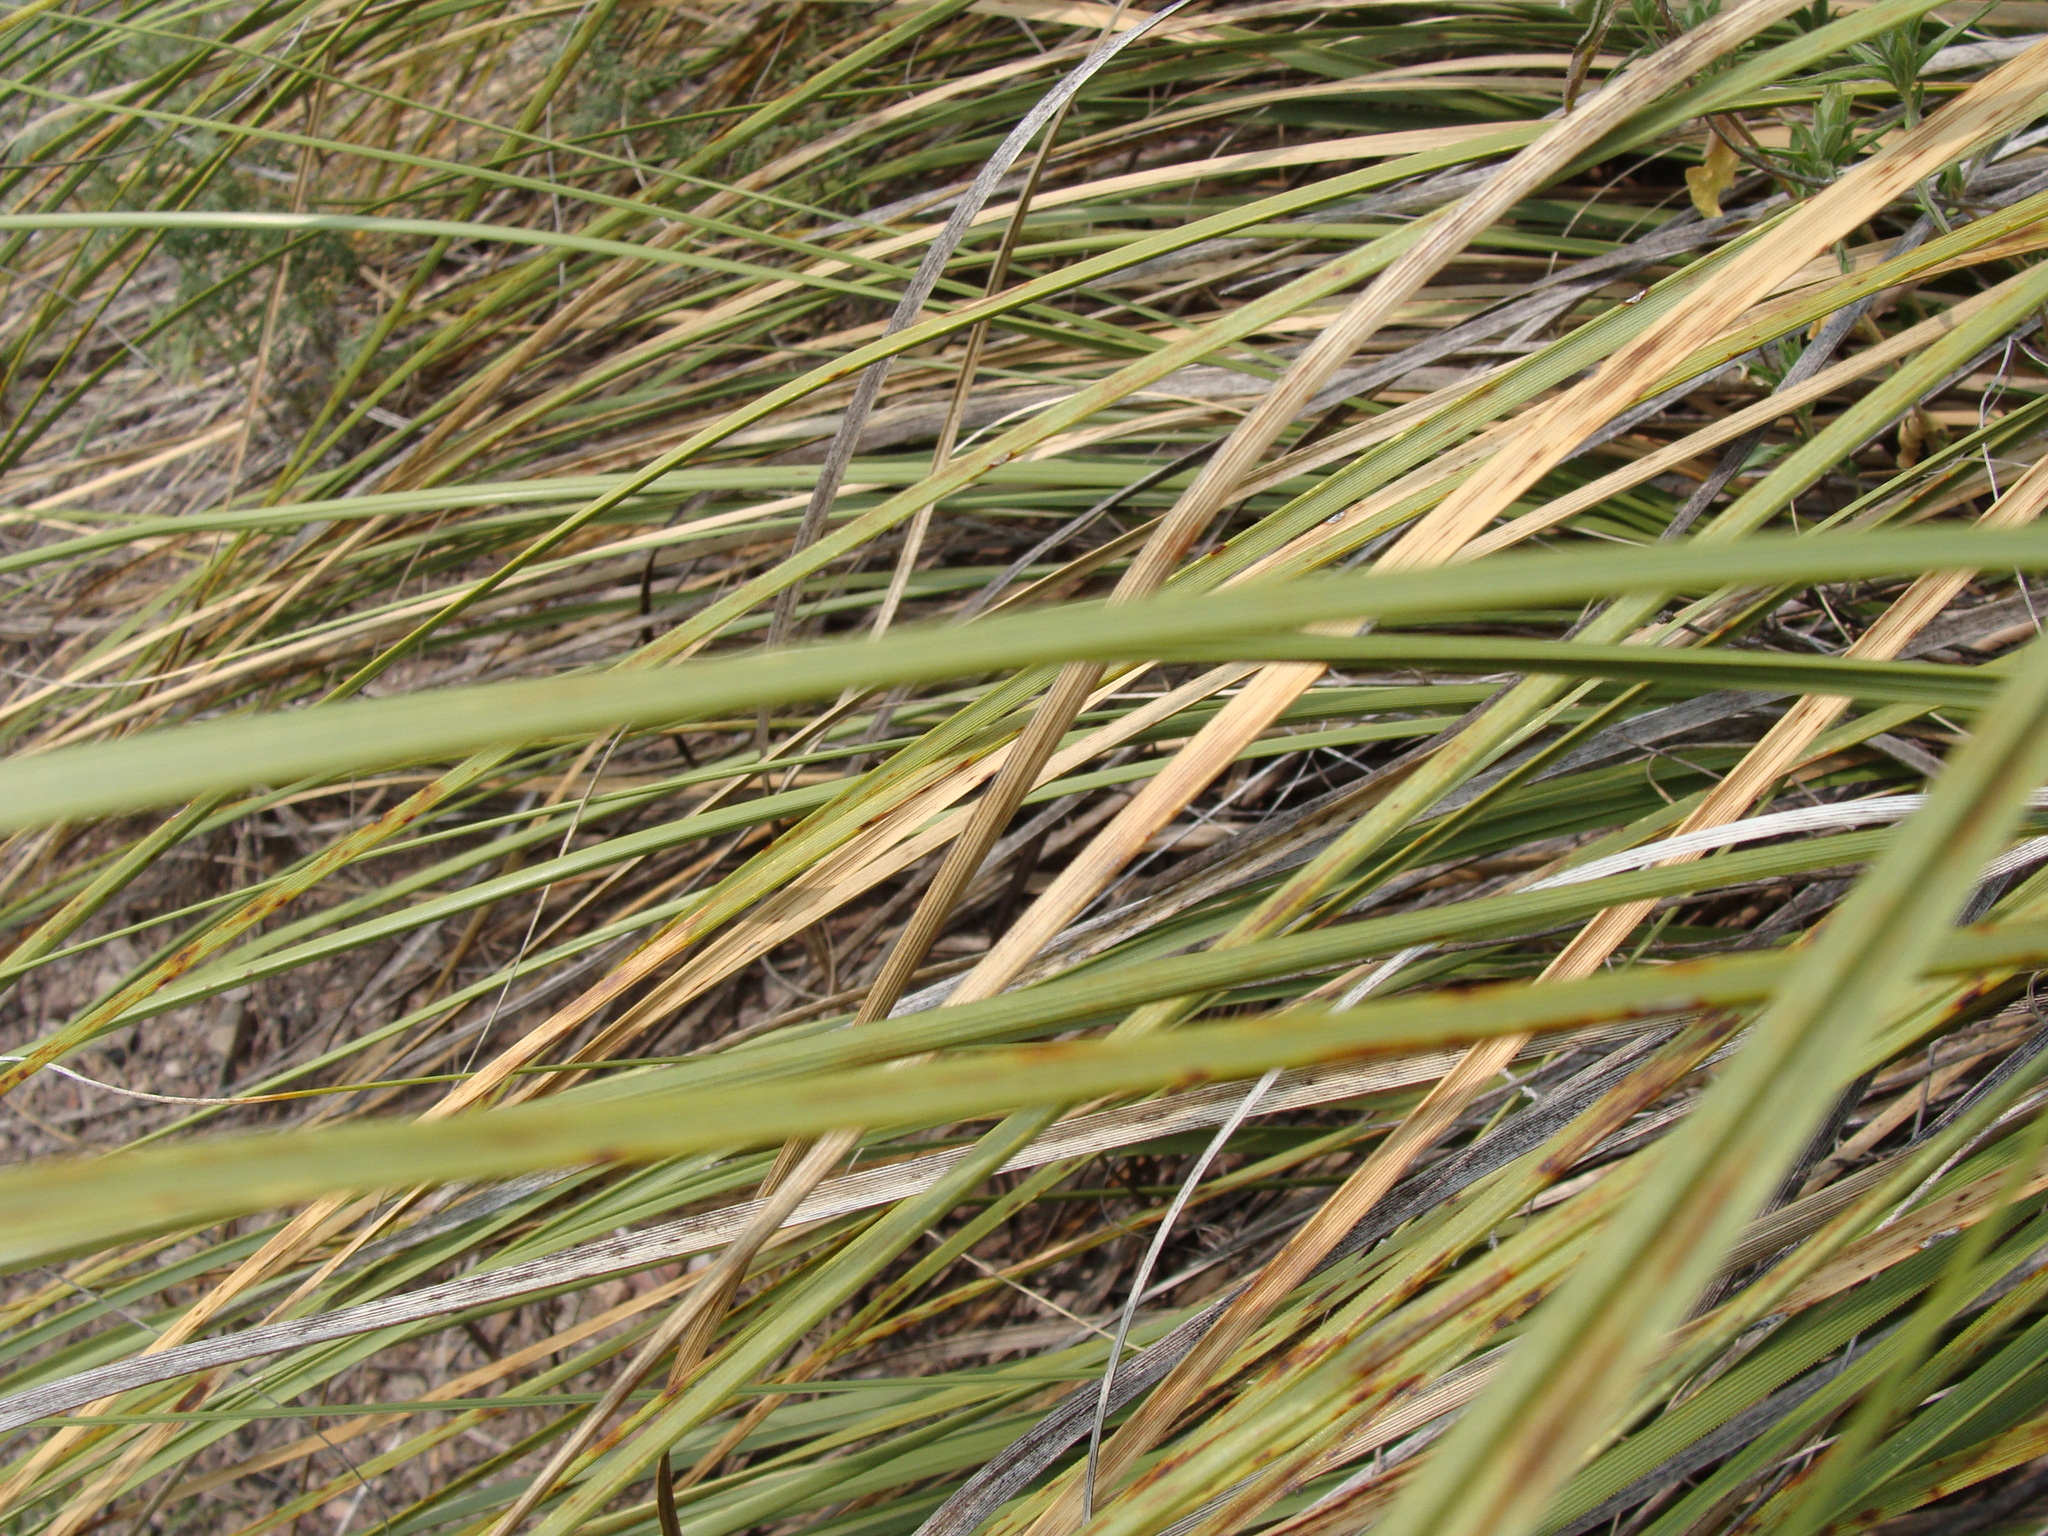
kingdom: Plantae
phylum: Tracheophyta
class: Liliopsida
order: Asparagales
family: Asparagaceae
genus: Nolina
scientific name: Nolina microcarpa
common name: Bear-grass
